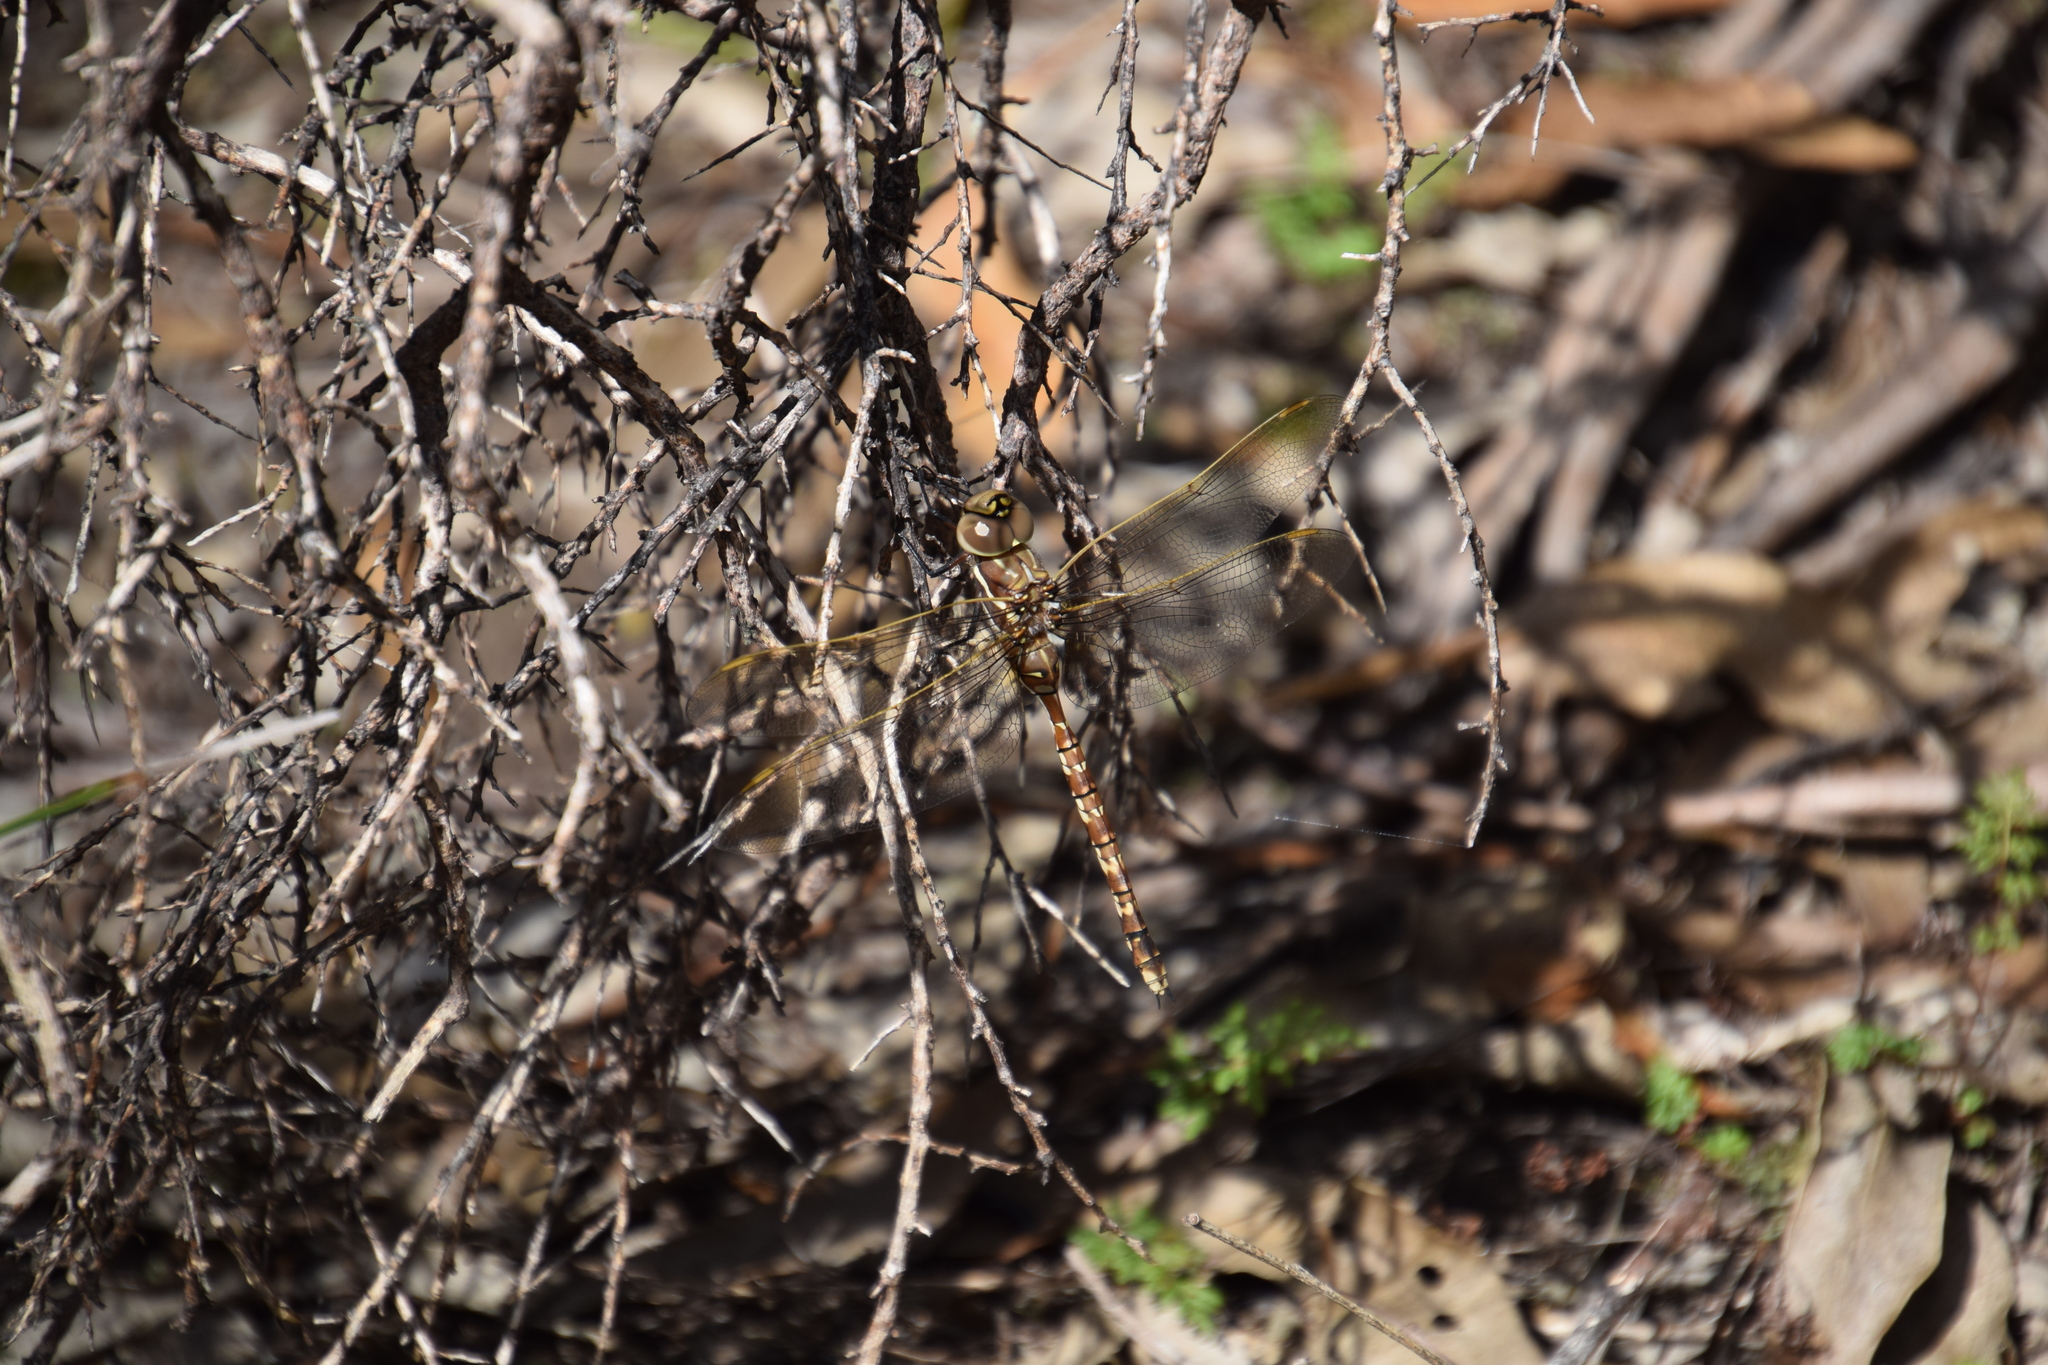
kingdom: Animalia
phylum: Arthropoda
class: Insecta
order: Odonata
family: Aeshnidae
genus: Aeshna
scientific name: Aeshna brevistyla
